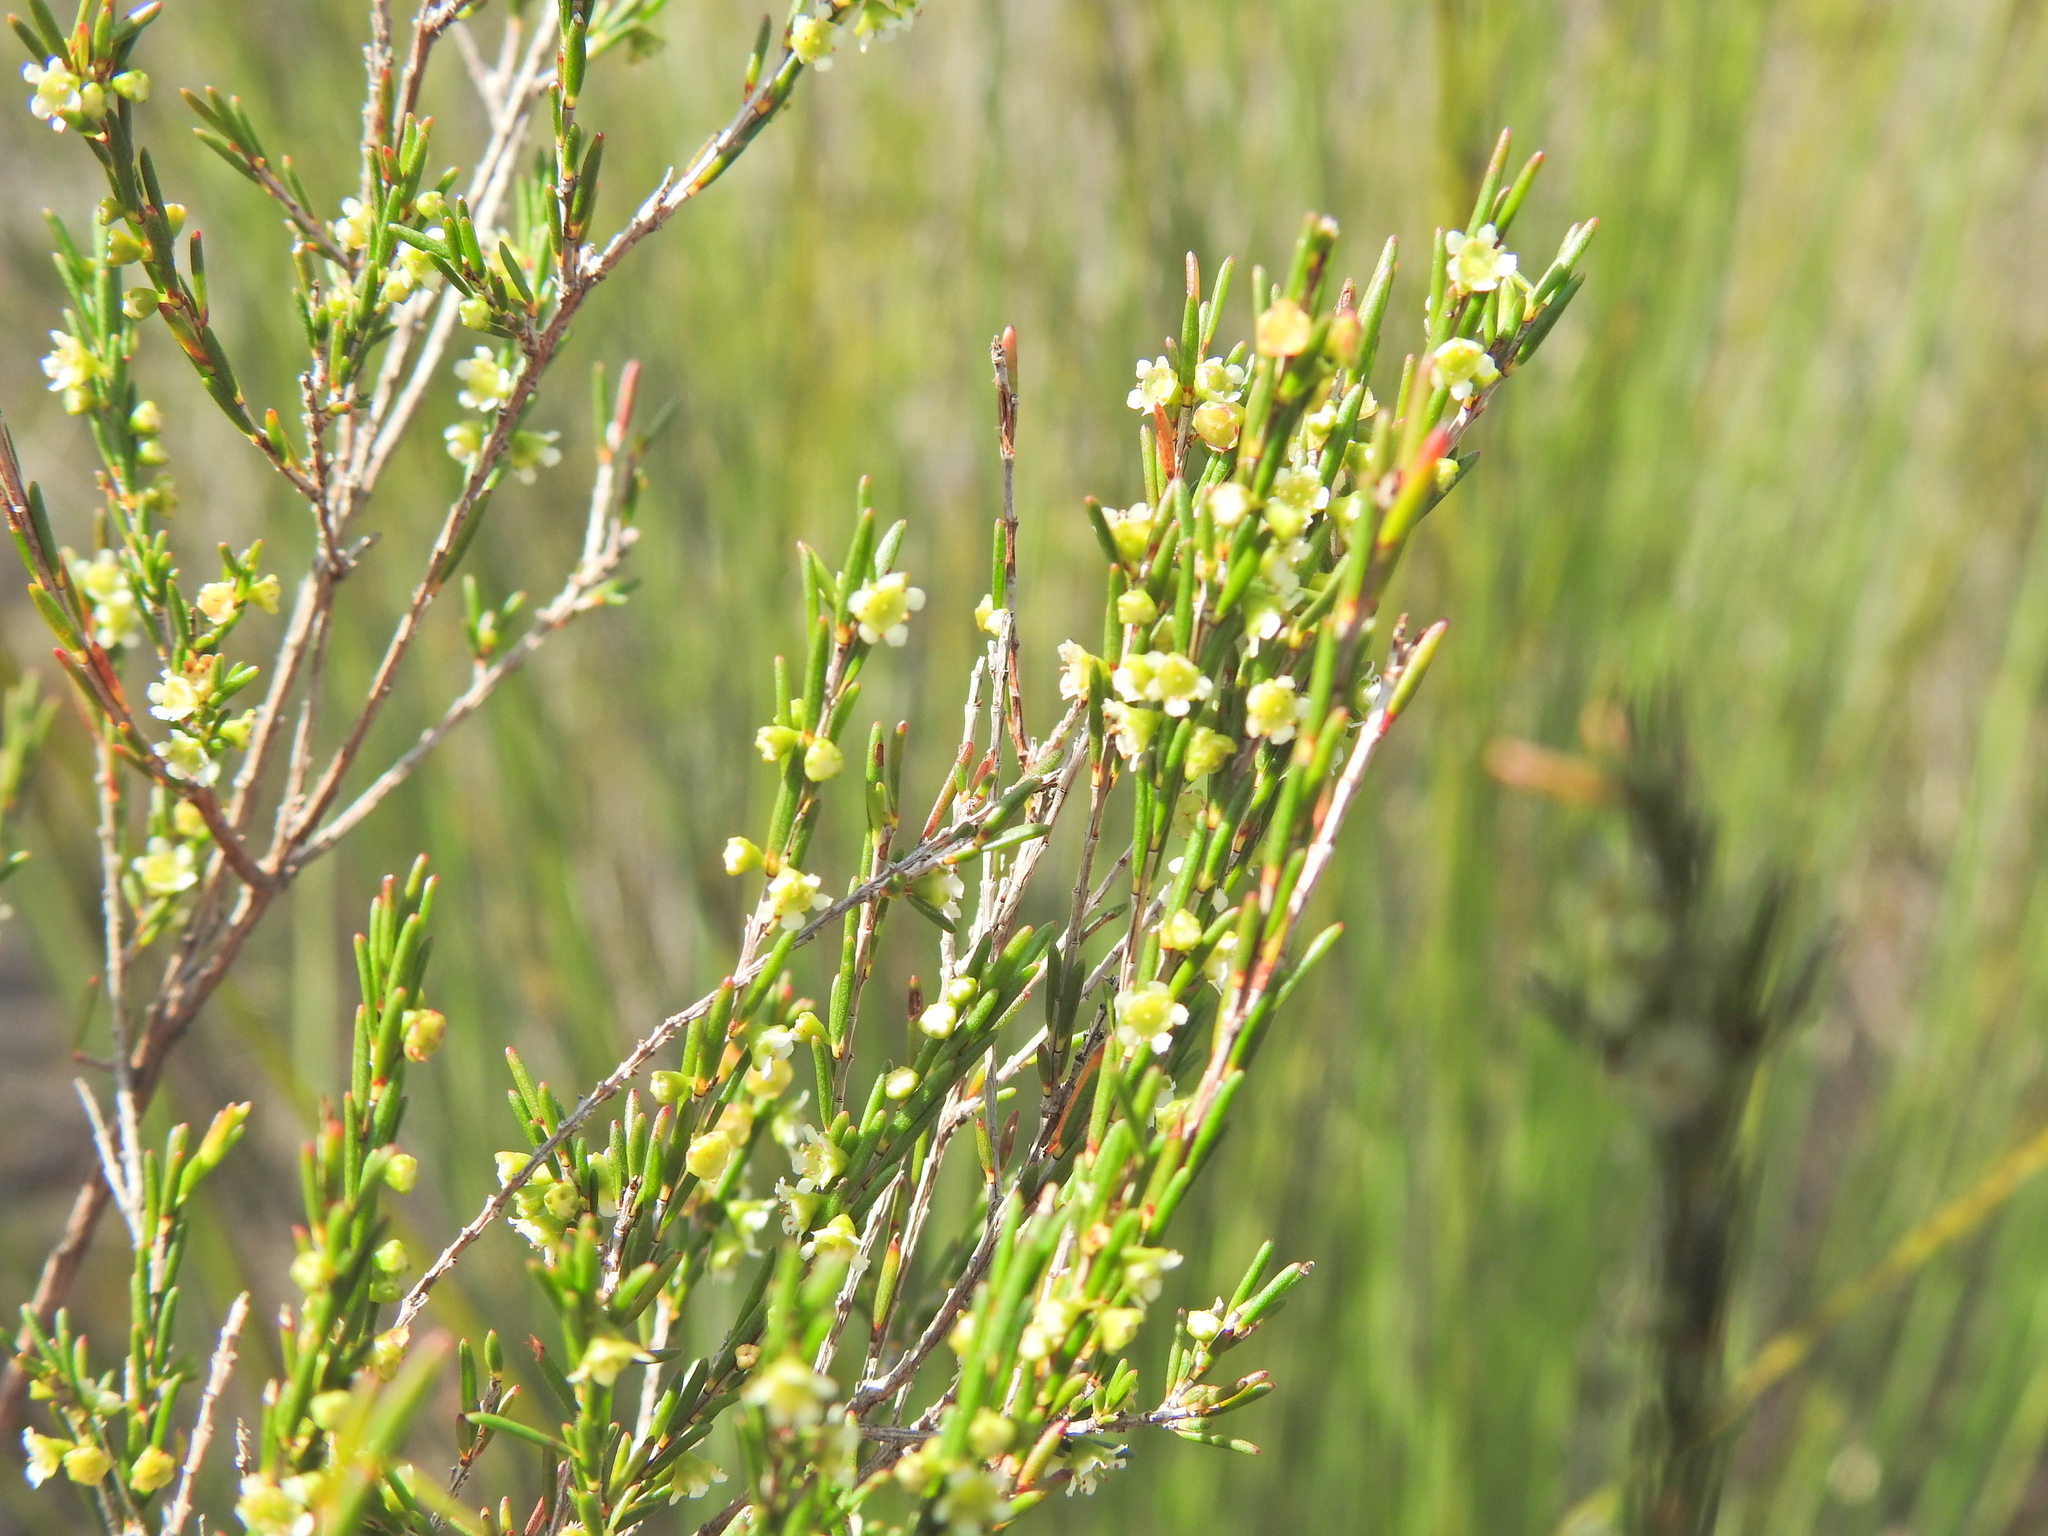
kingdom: Plantae
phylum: Tracheophyta
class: Magnoliopsida
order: Myrtales
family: Myrtaceae
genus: Ochrosperma
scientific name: Ochrosperma lineare
